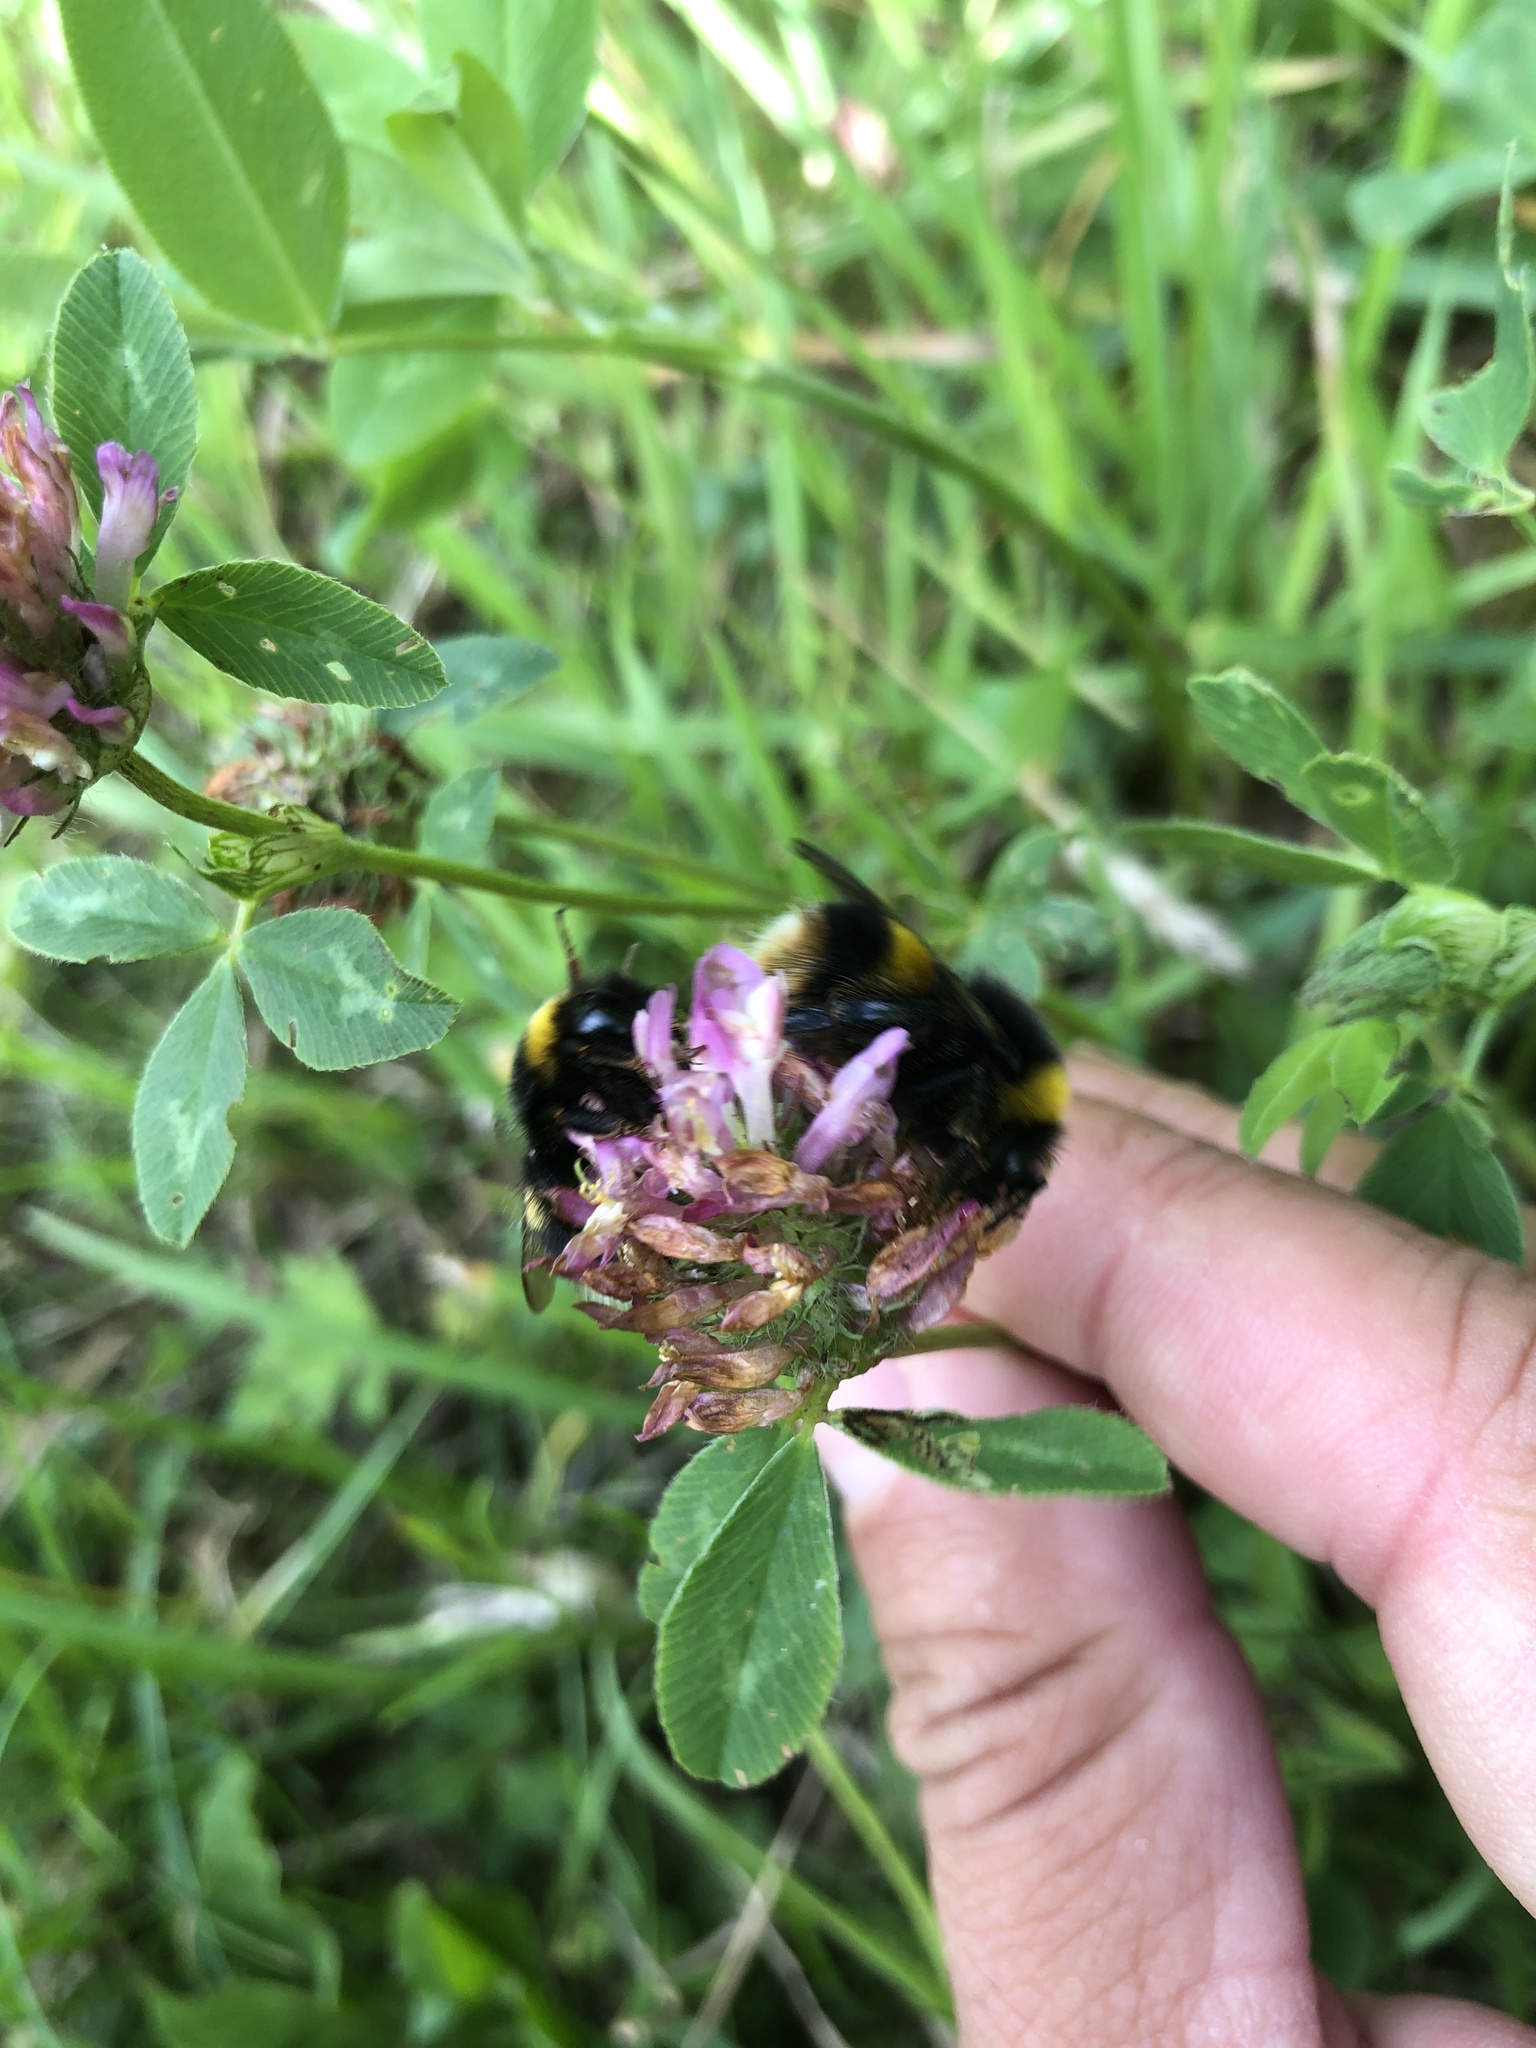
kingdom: Animalia
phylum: Arthropoda
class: Insecta
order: Hymenoptera
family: Apidae
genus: Bombus
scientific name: Bombus hortorum
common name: Garden bumblebee
